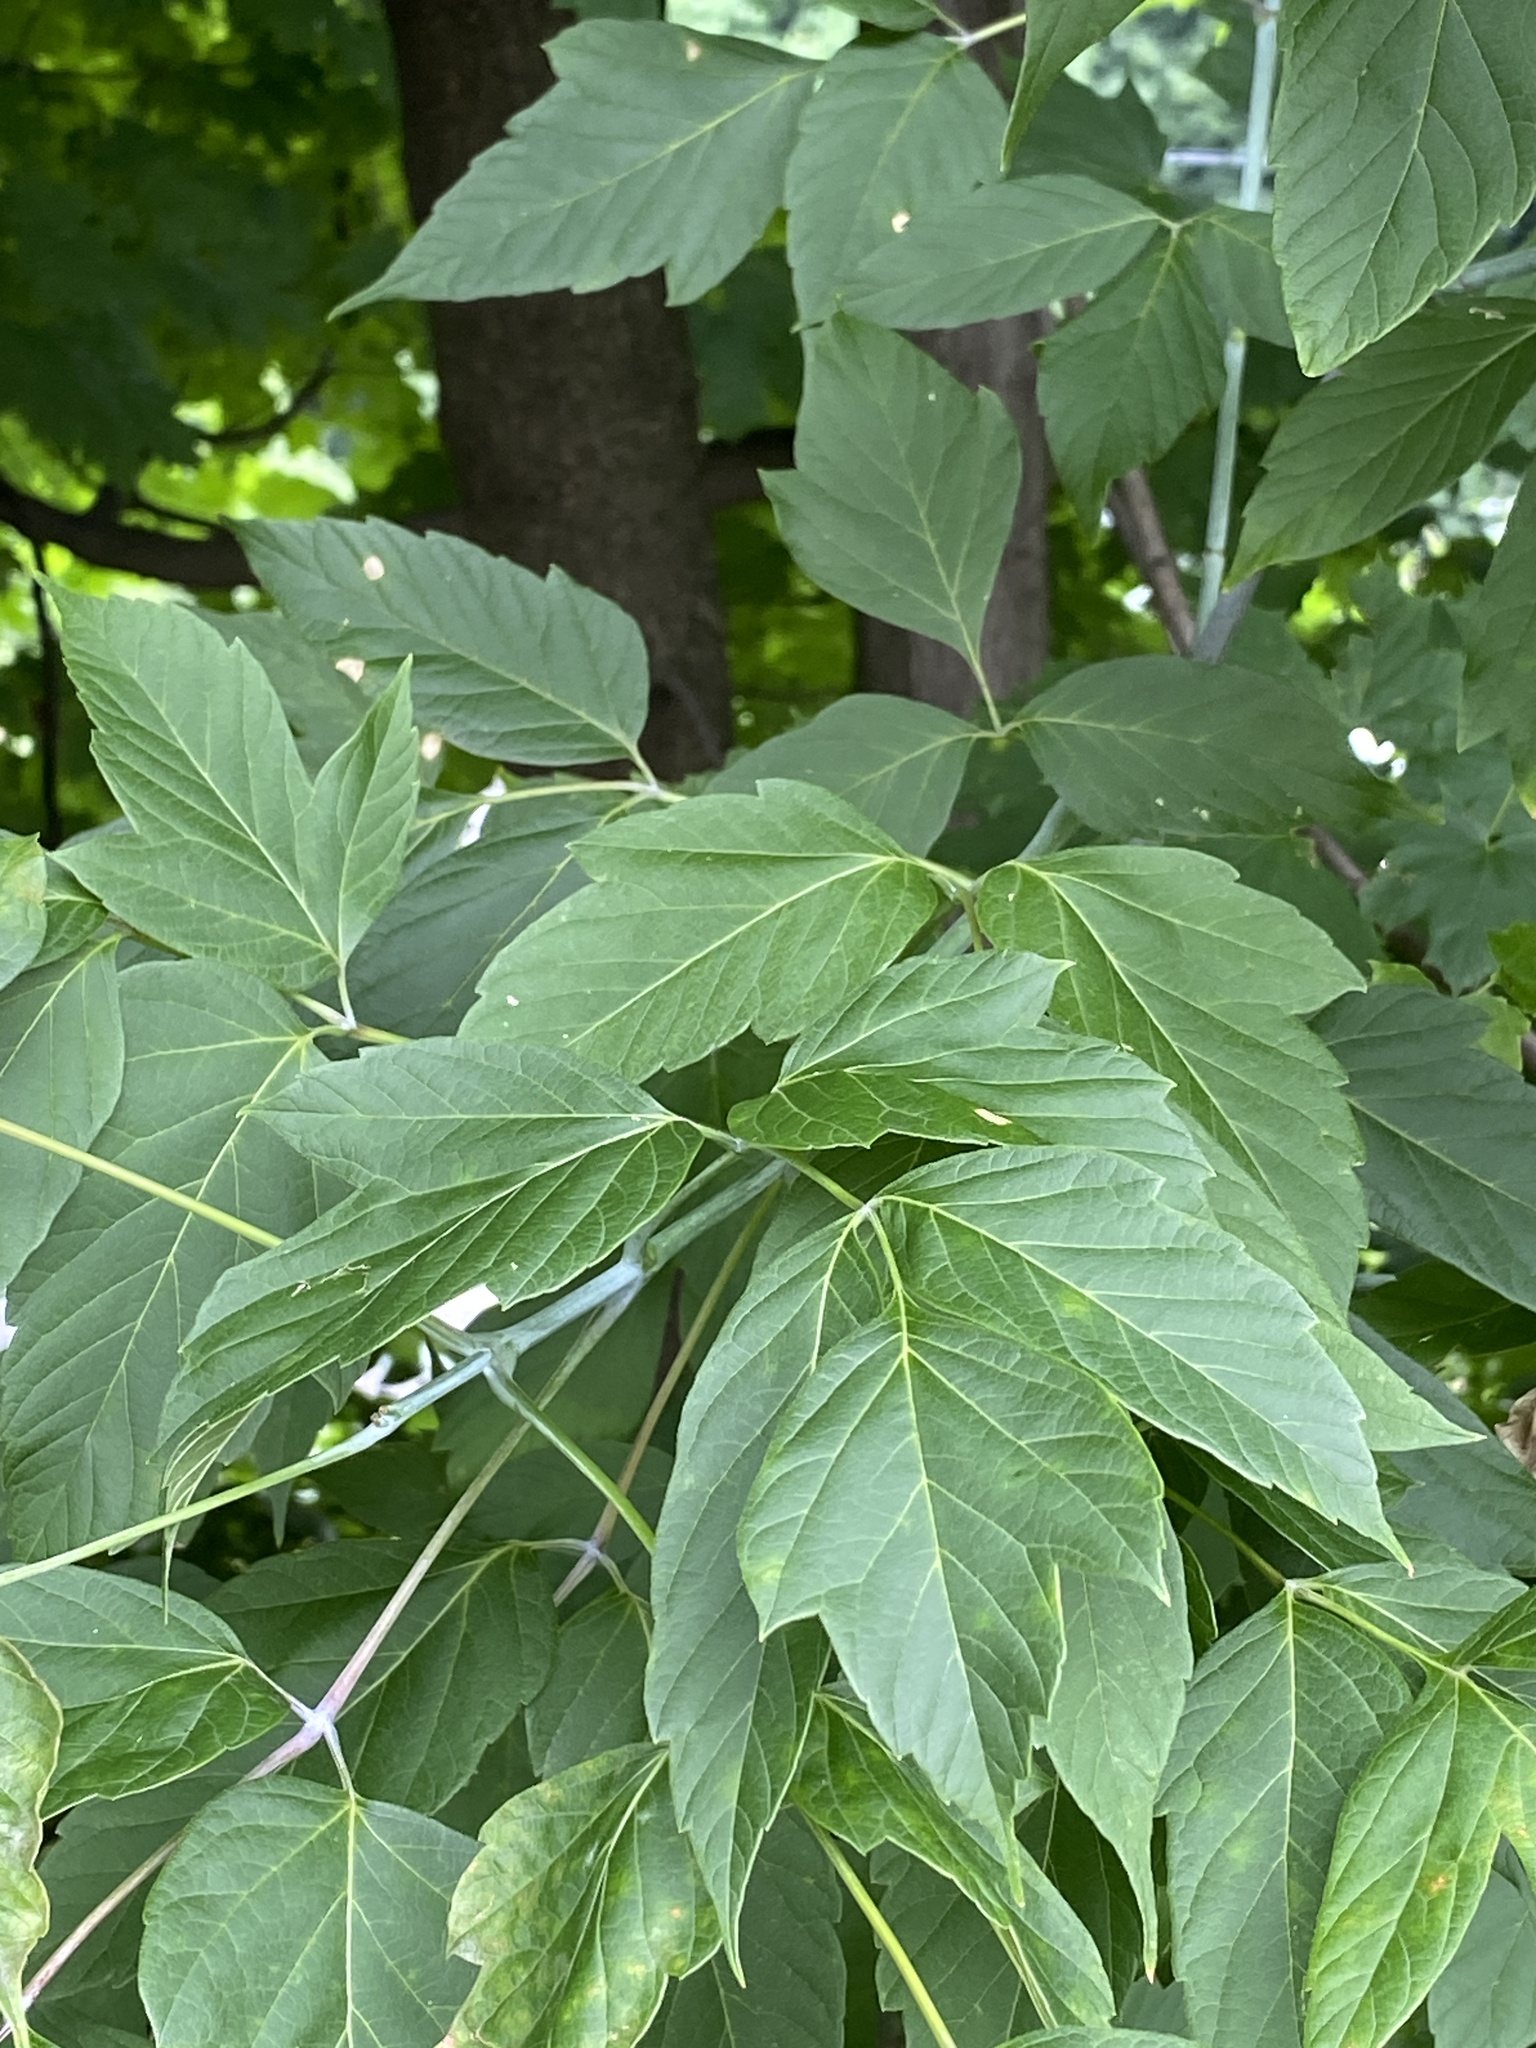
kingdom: Plantae
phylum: Tracheophyta
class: Magnoliopsida
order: Sapindales
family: Sapindaceae
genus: Acer
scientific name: Acer negundo
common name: Ashleaf maple
